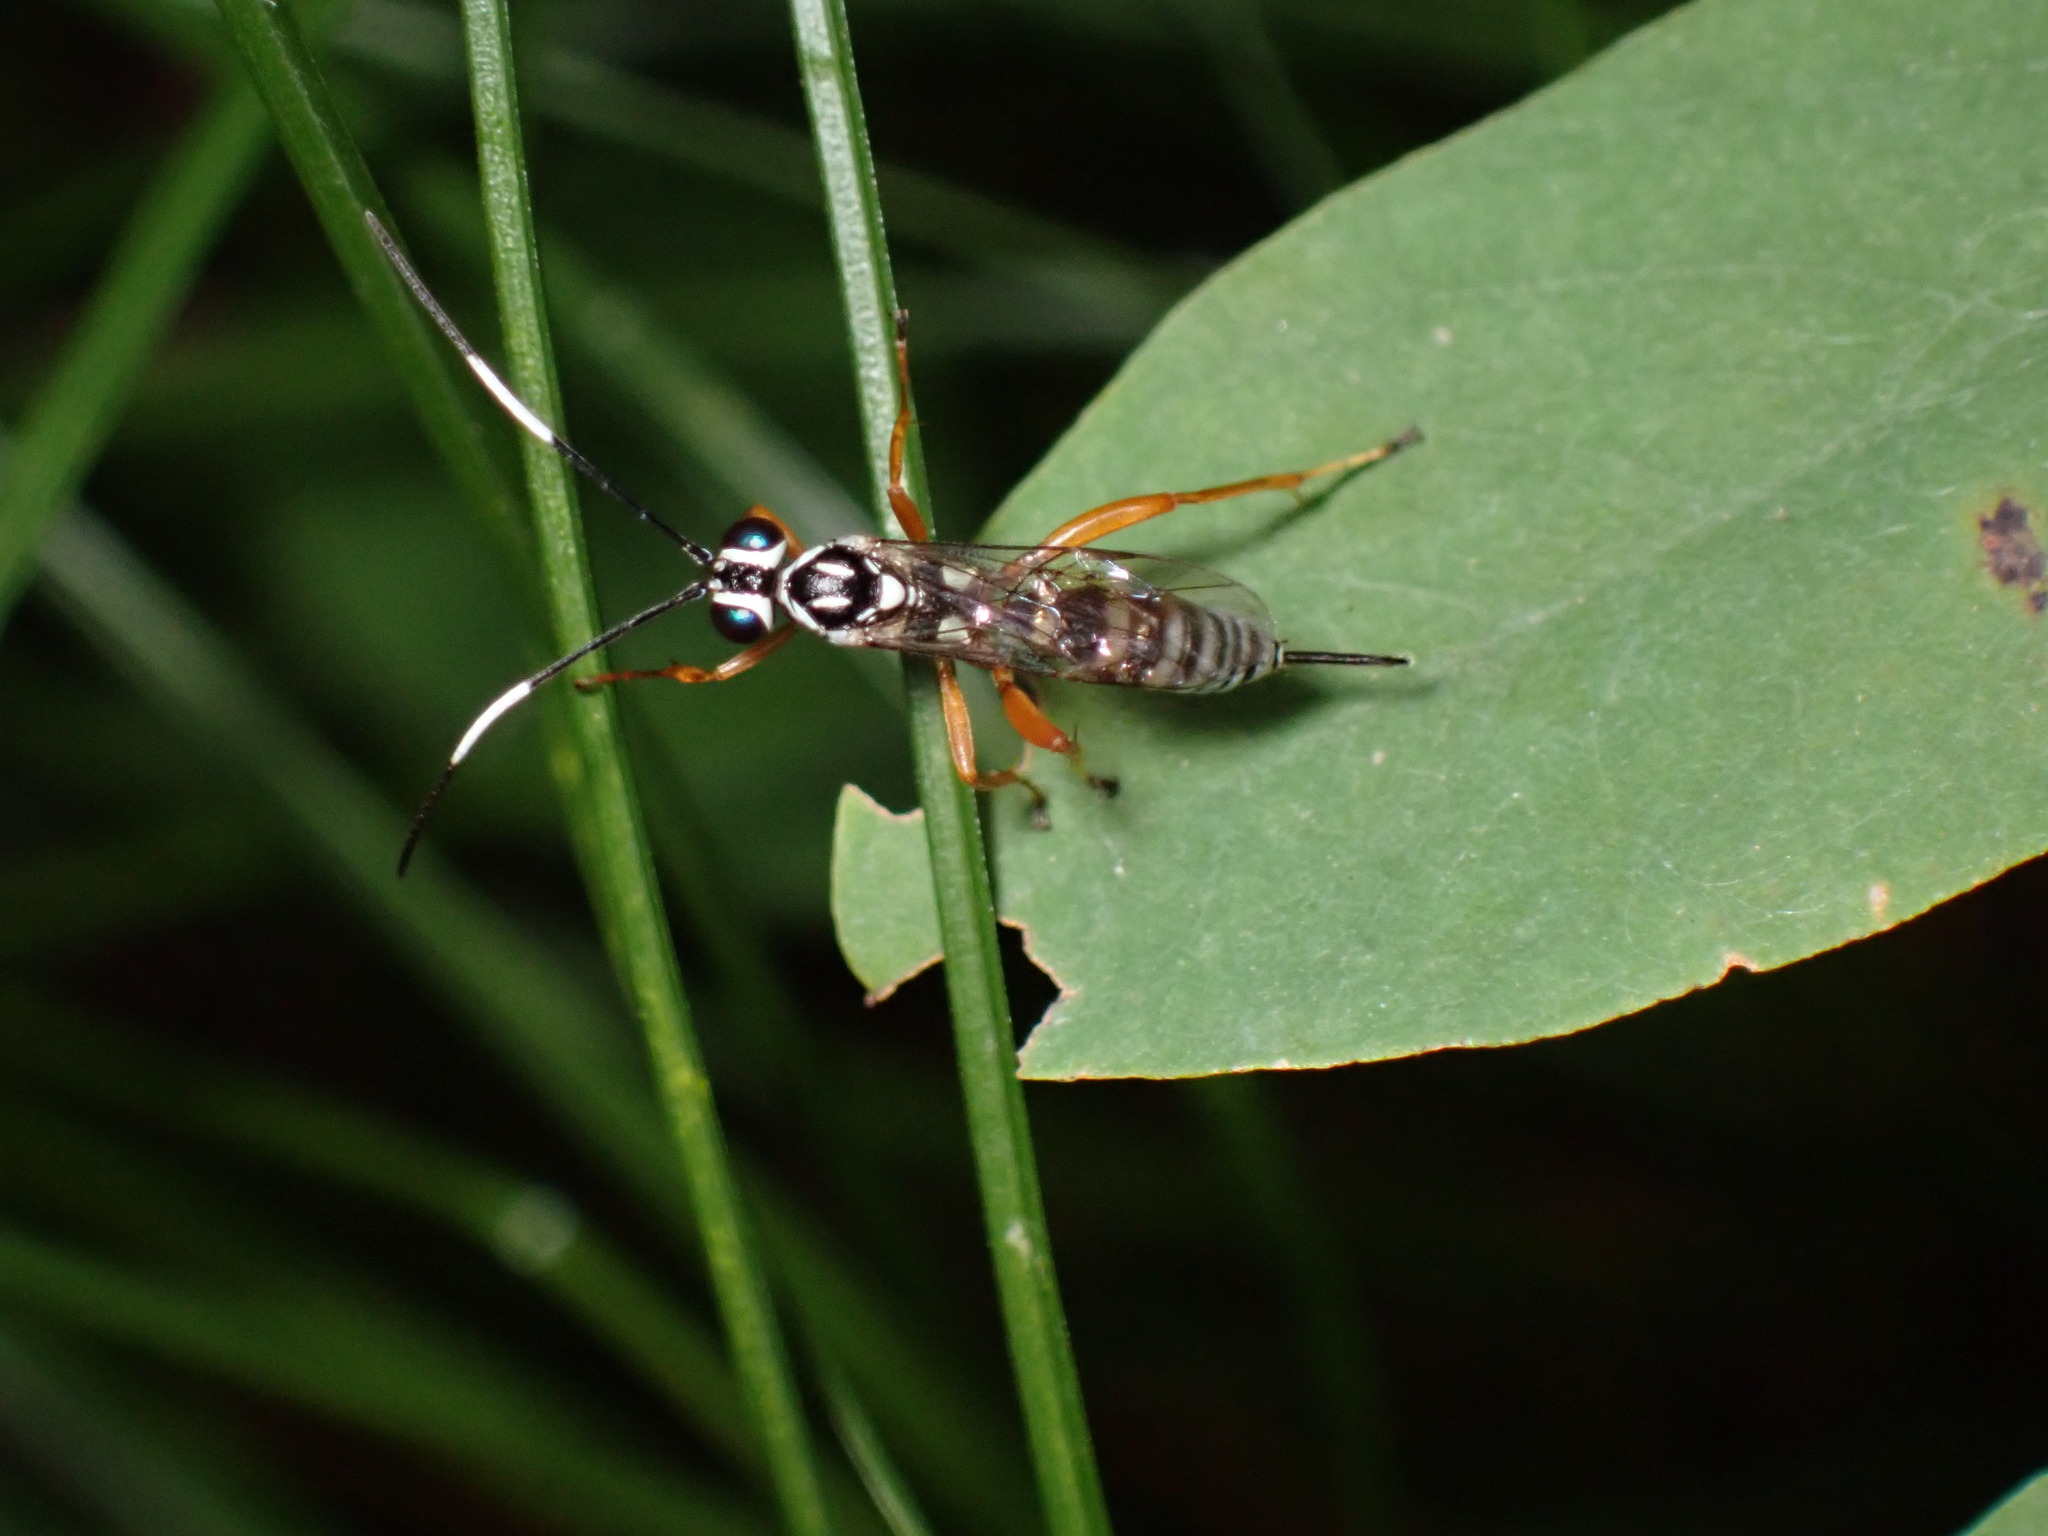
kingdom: Animalia
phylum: Arthropoda
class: Insecta
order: Hymenoptera
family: Ichneumonidae
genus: Lymeon
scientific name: Lymeon orbus
